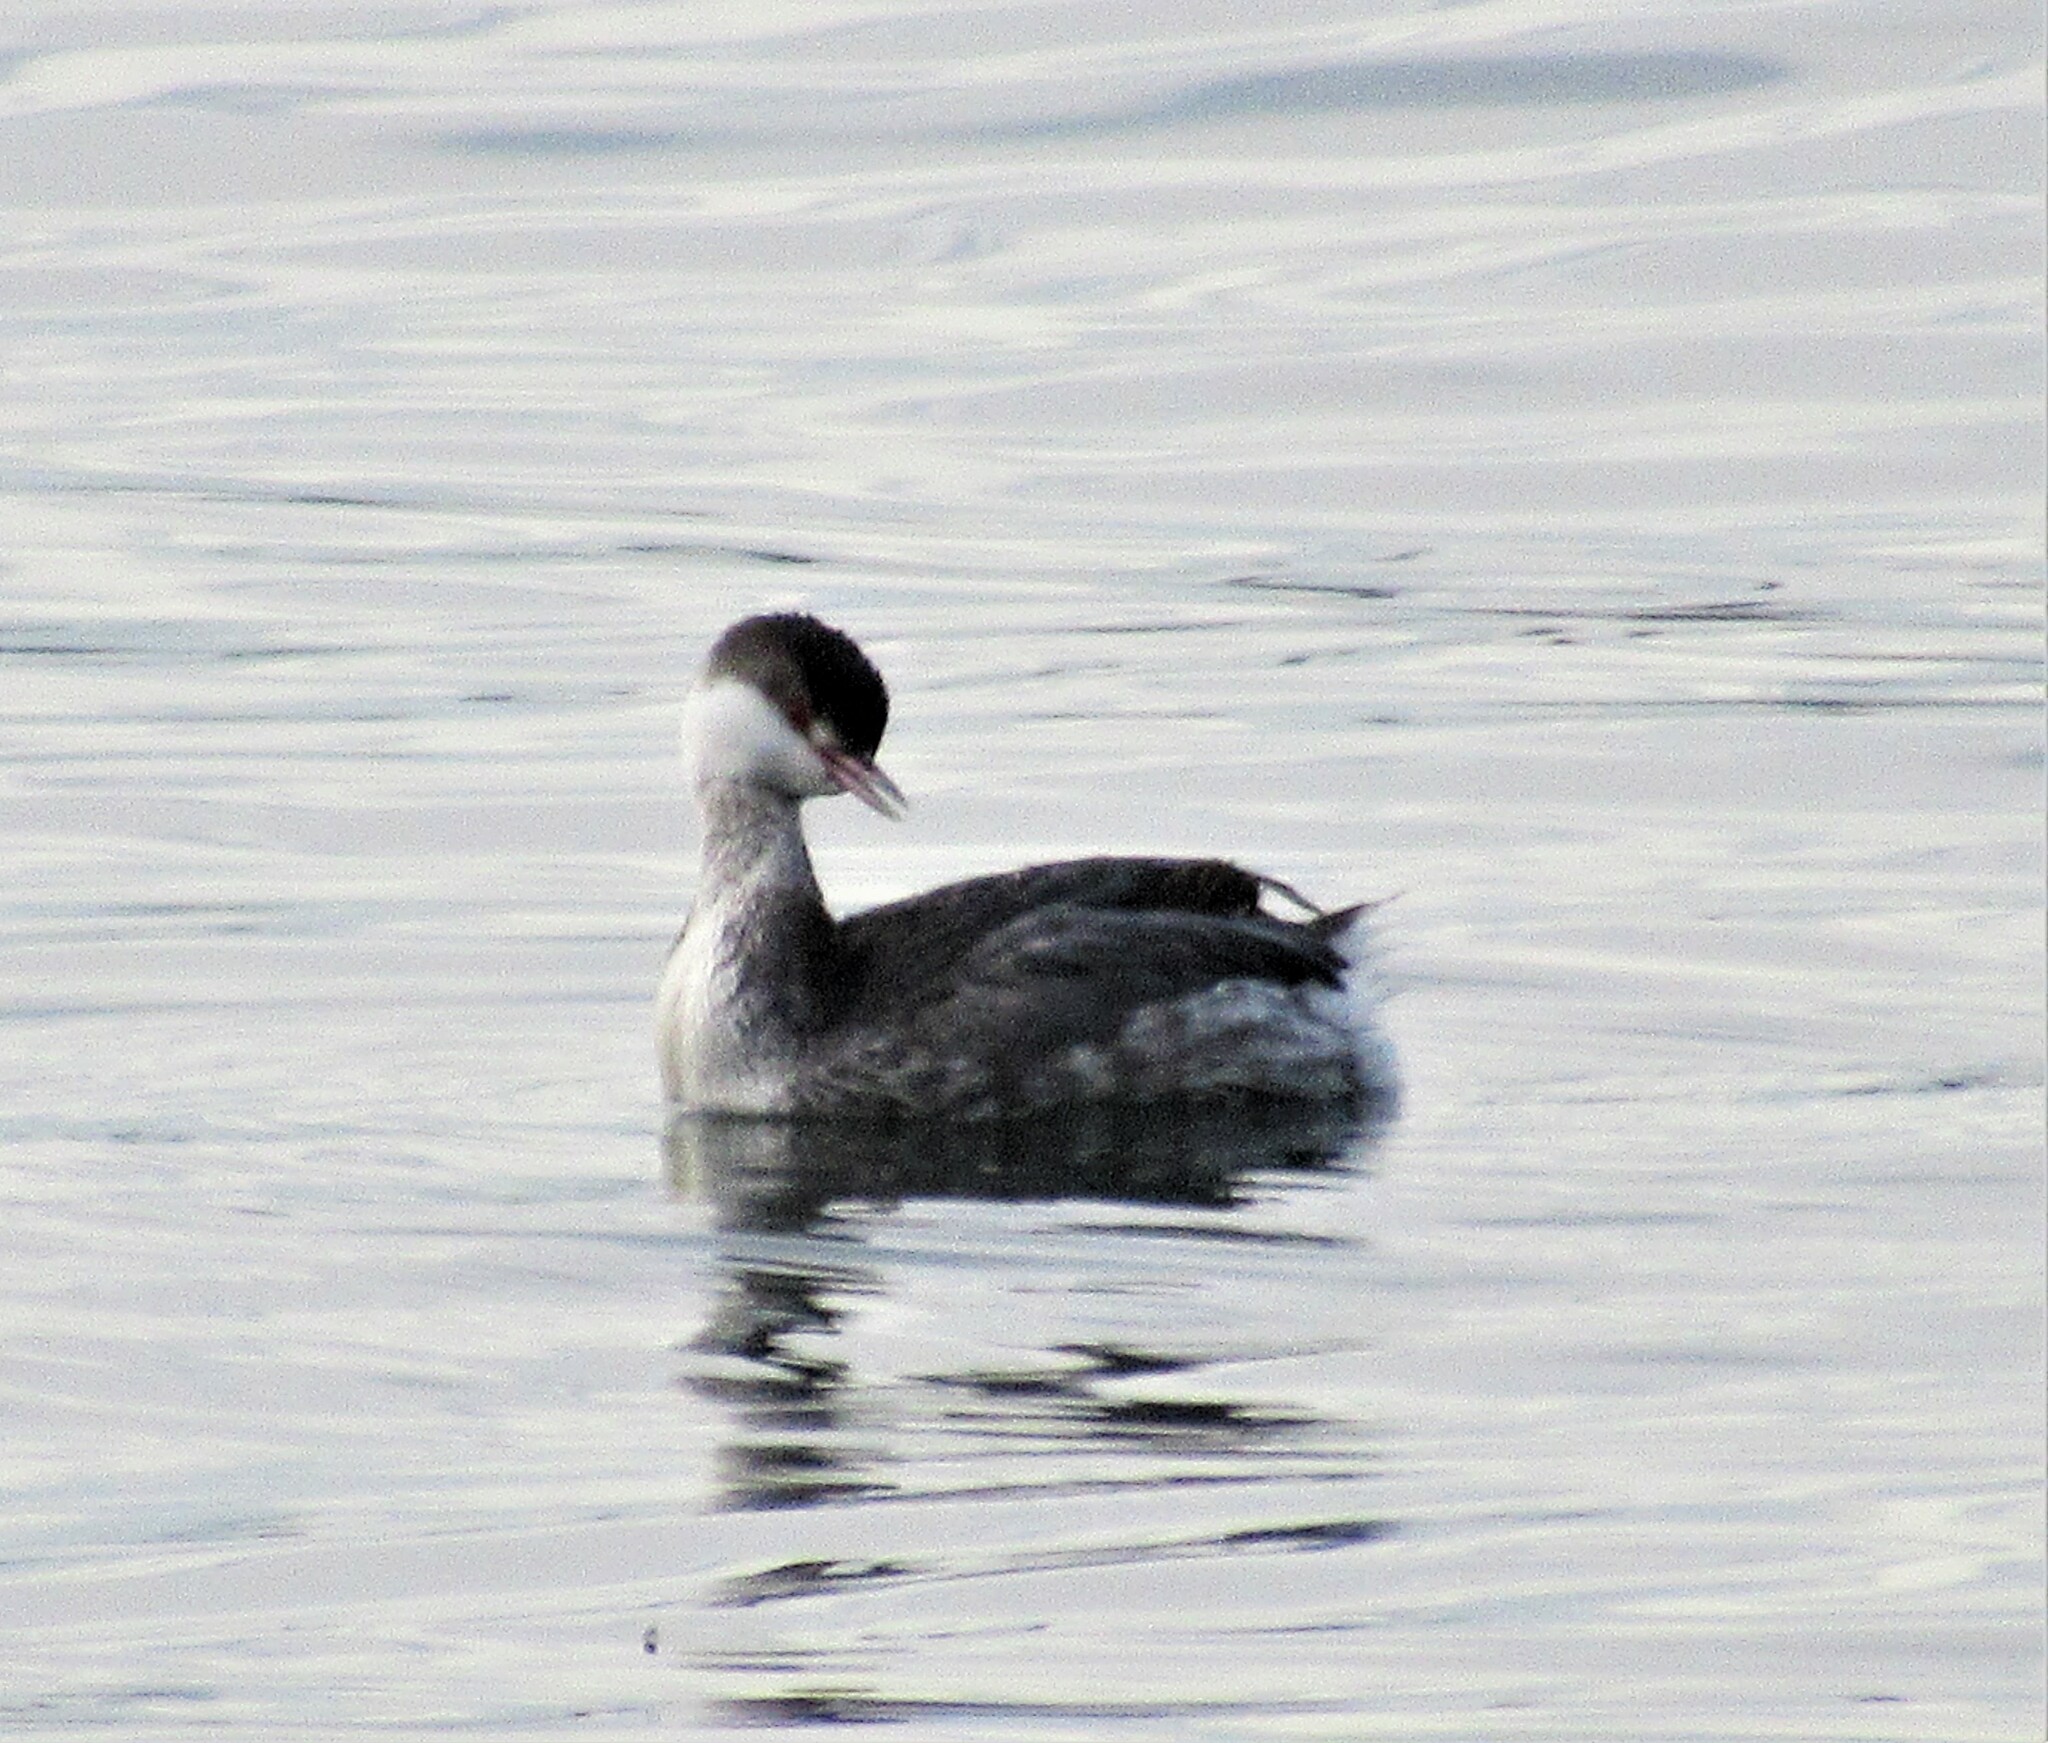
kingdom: Animalia
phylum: Chordata
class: Aves
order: Podicipediformes
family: Podicipedidae
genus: Podiceps
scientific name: Podiceps auritus
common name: Horned grebe
